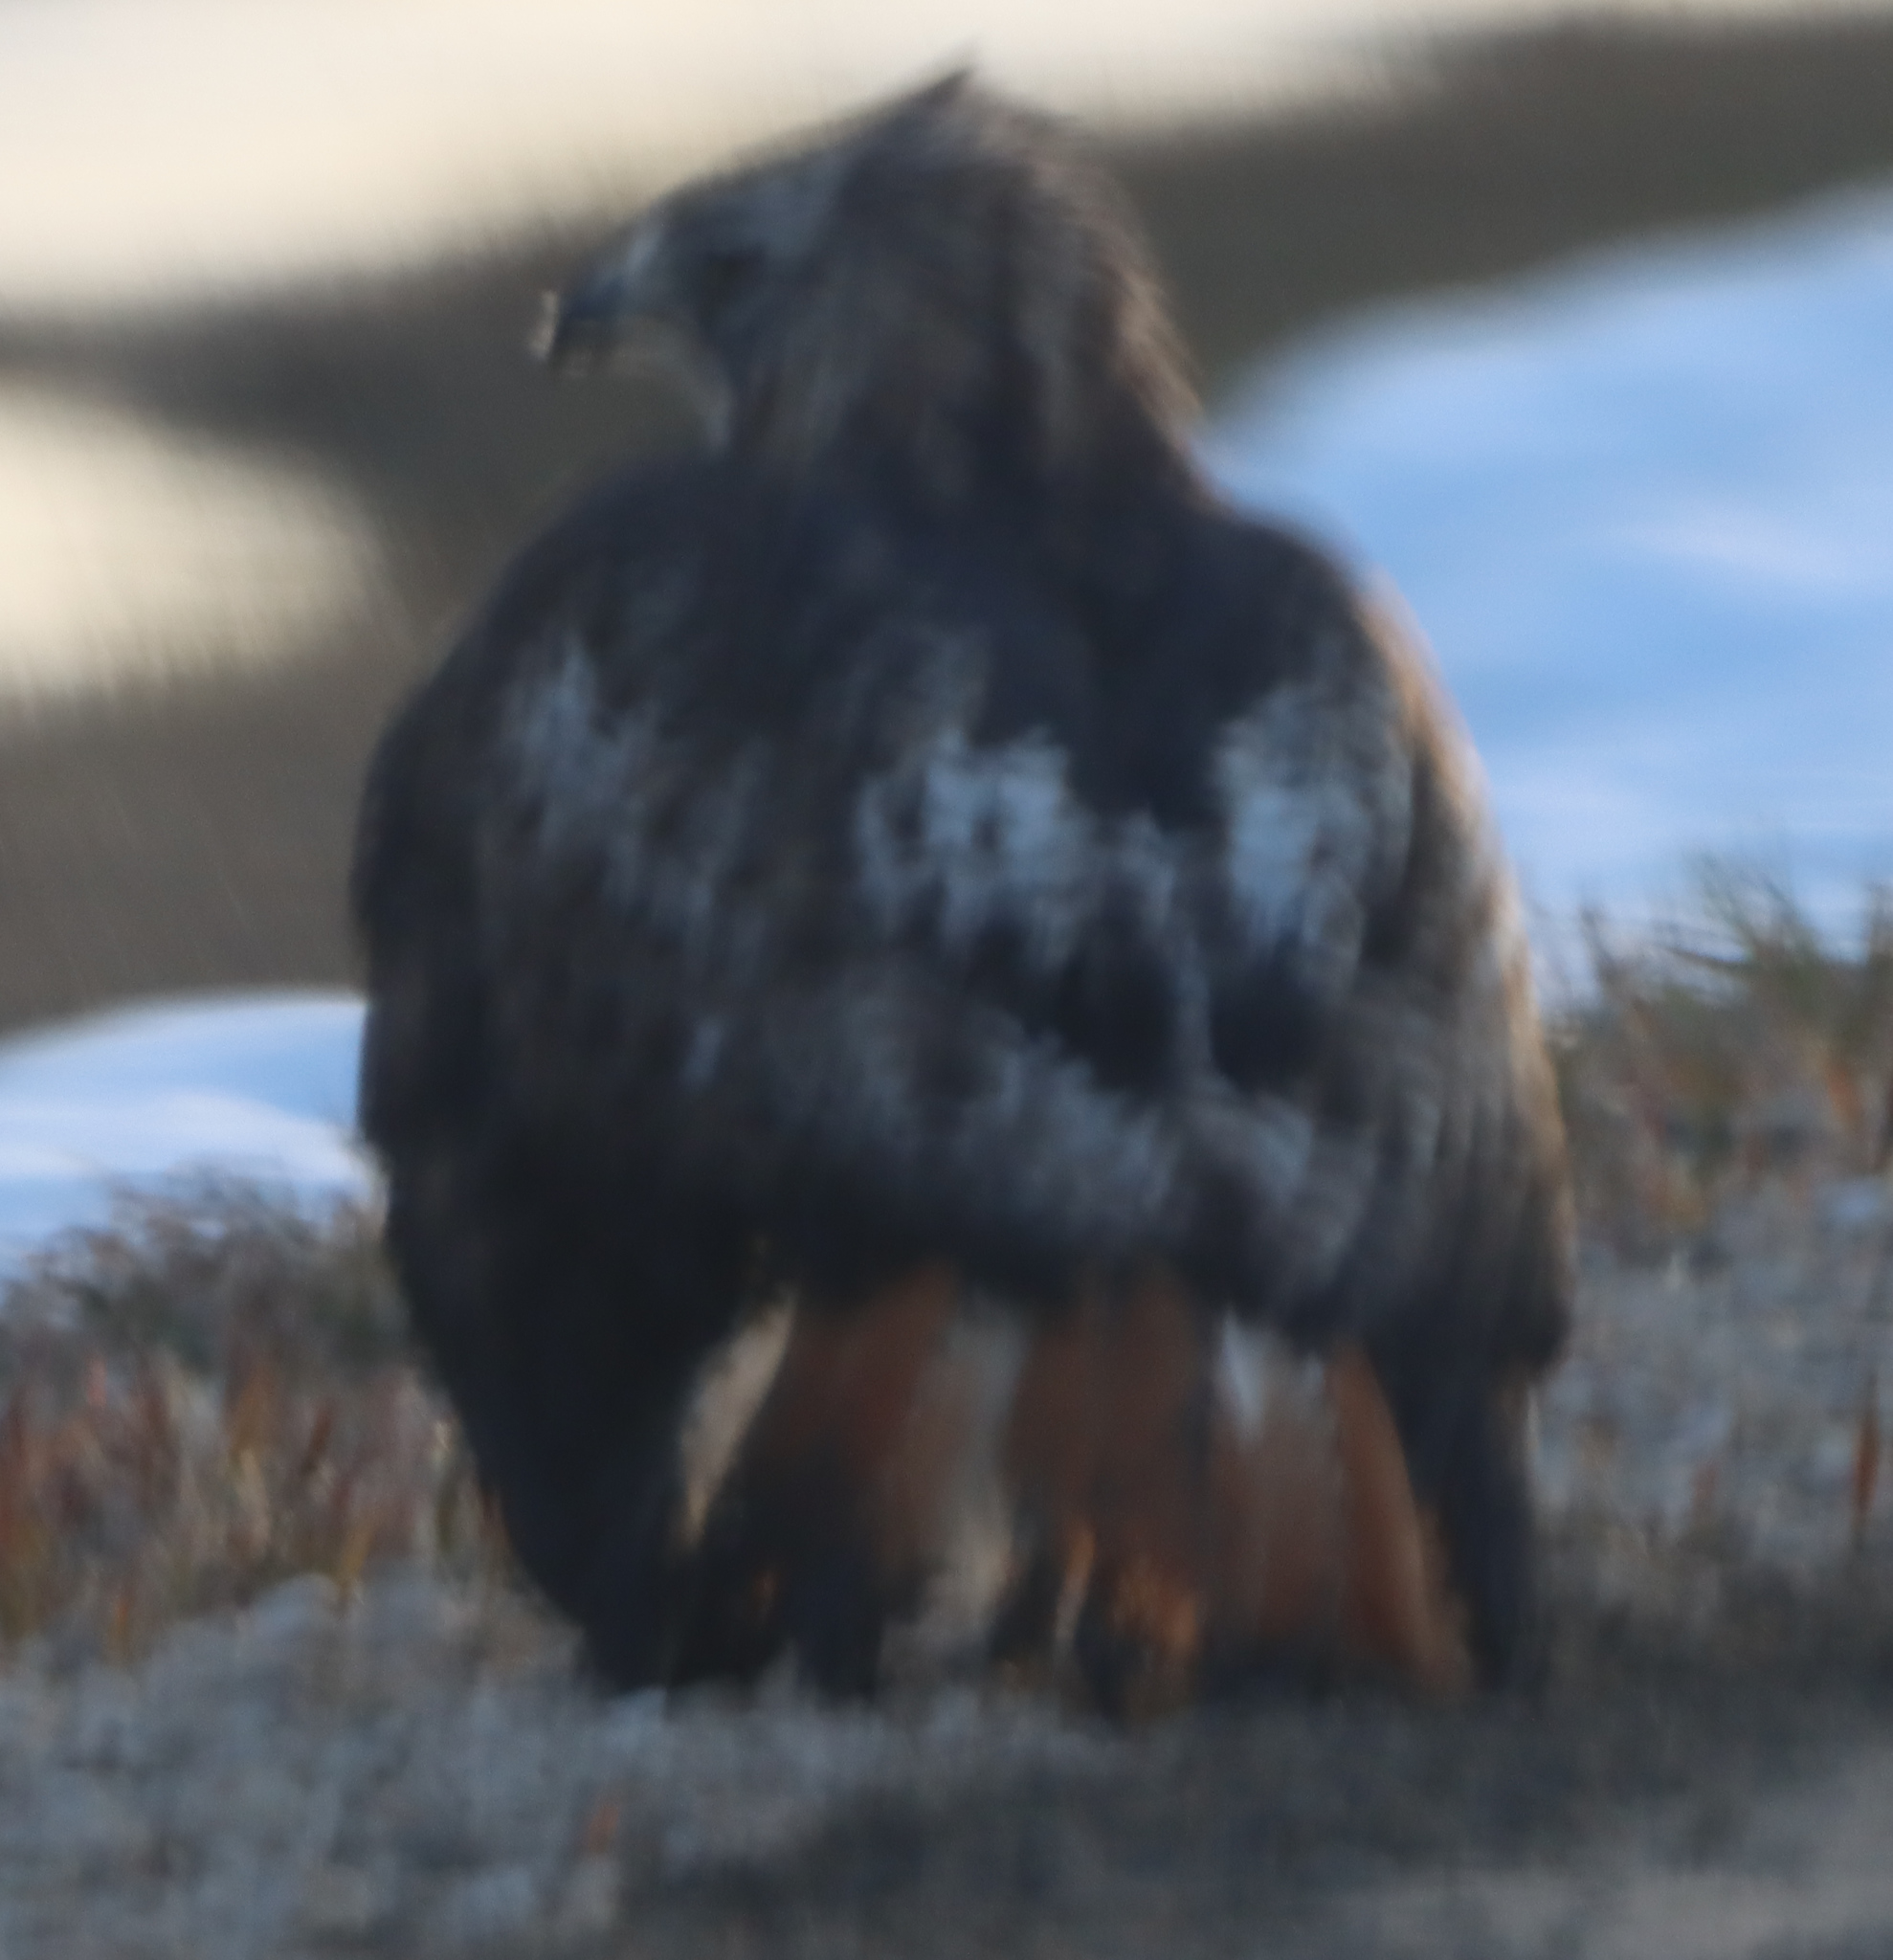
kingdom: Animalia
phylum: Chordata
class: Aves
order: Accipitriformes
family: Accipitridae
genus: Buteo
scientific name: Buteo jamaicensis
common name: Red-tailed hawk
